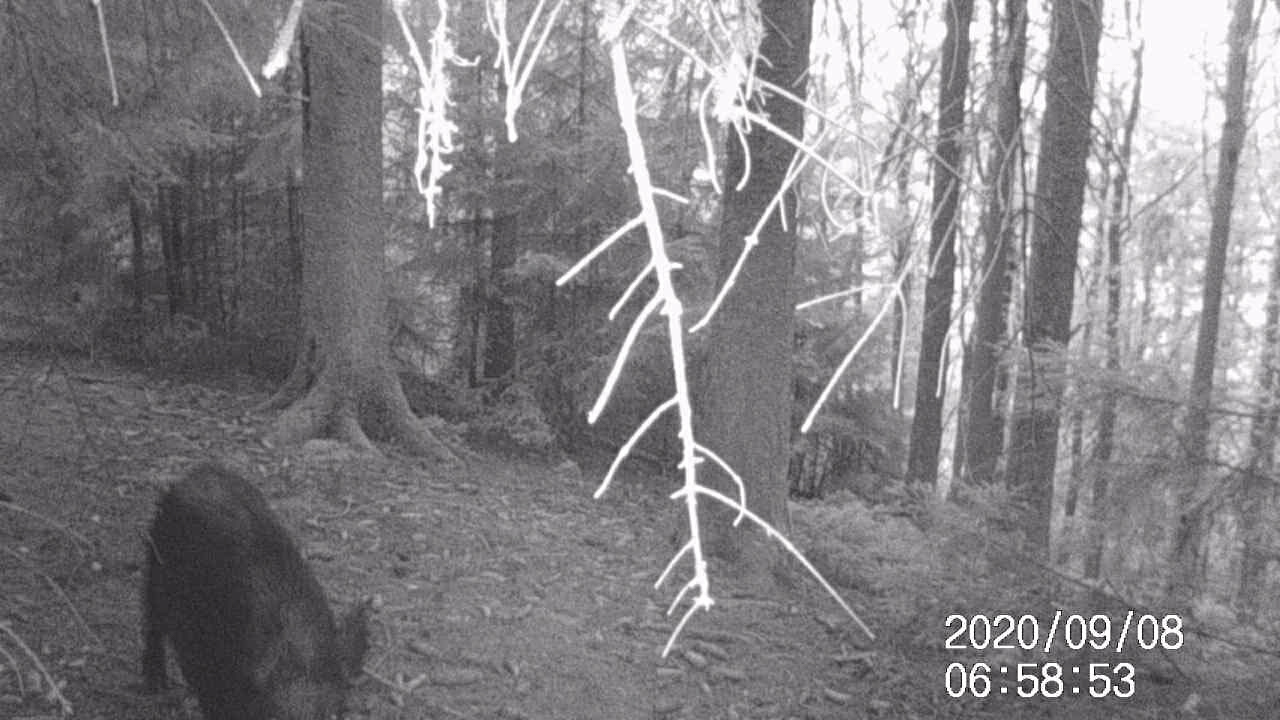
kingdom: Animalia
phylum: Chordata
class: Mammalia
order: Artiodactyla
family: Suidae
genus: Sus
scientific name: Sus scrofa
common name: Wild boar
